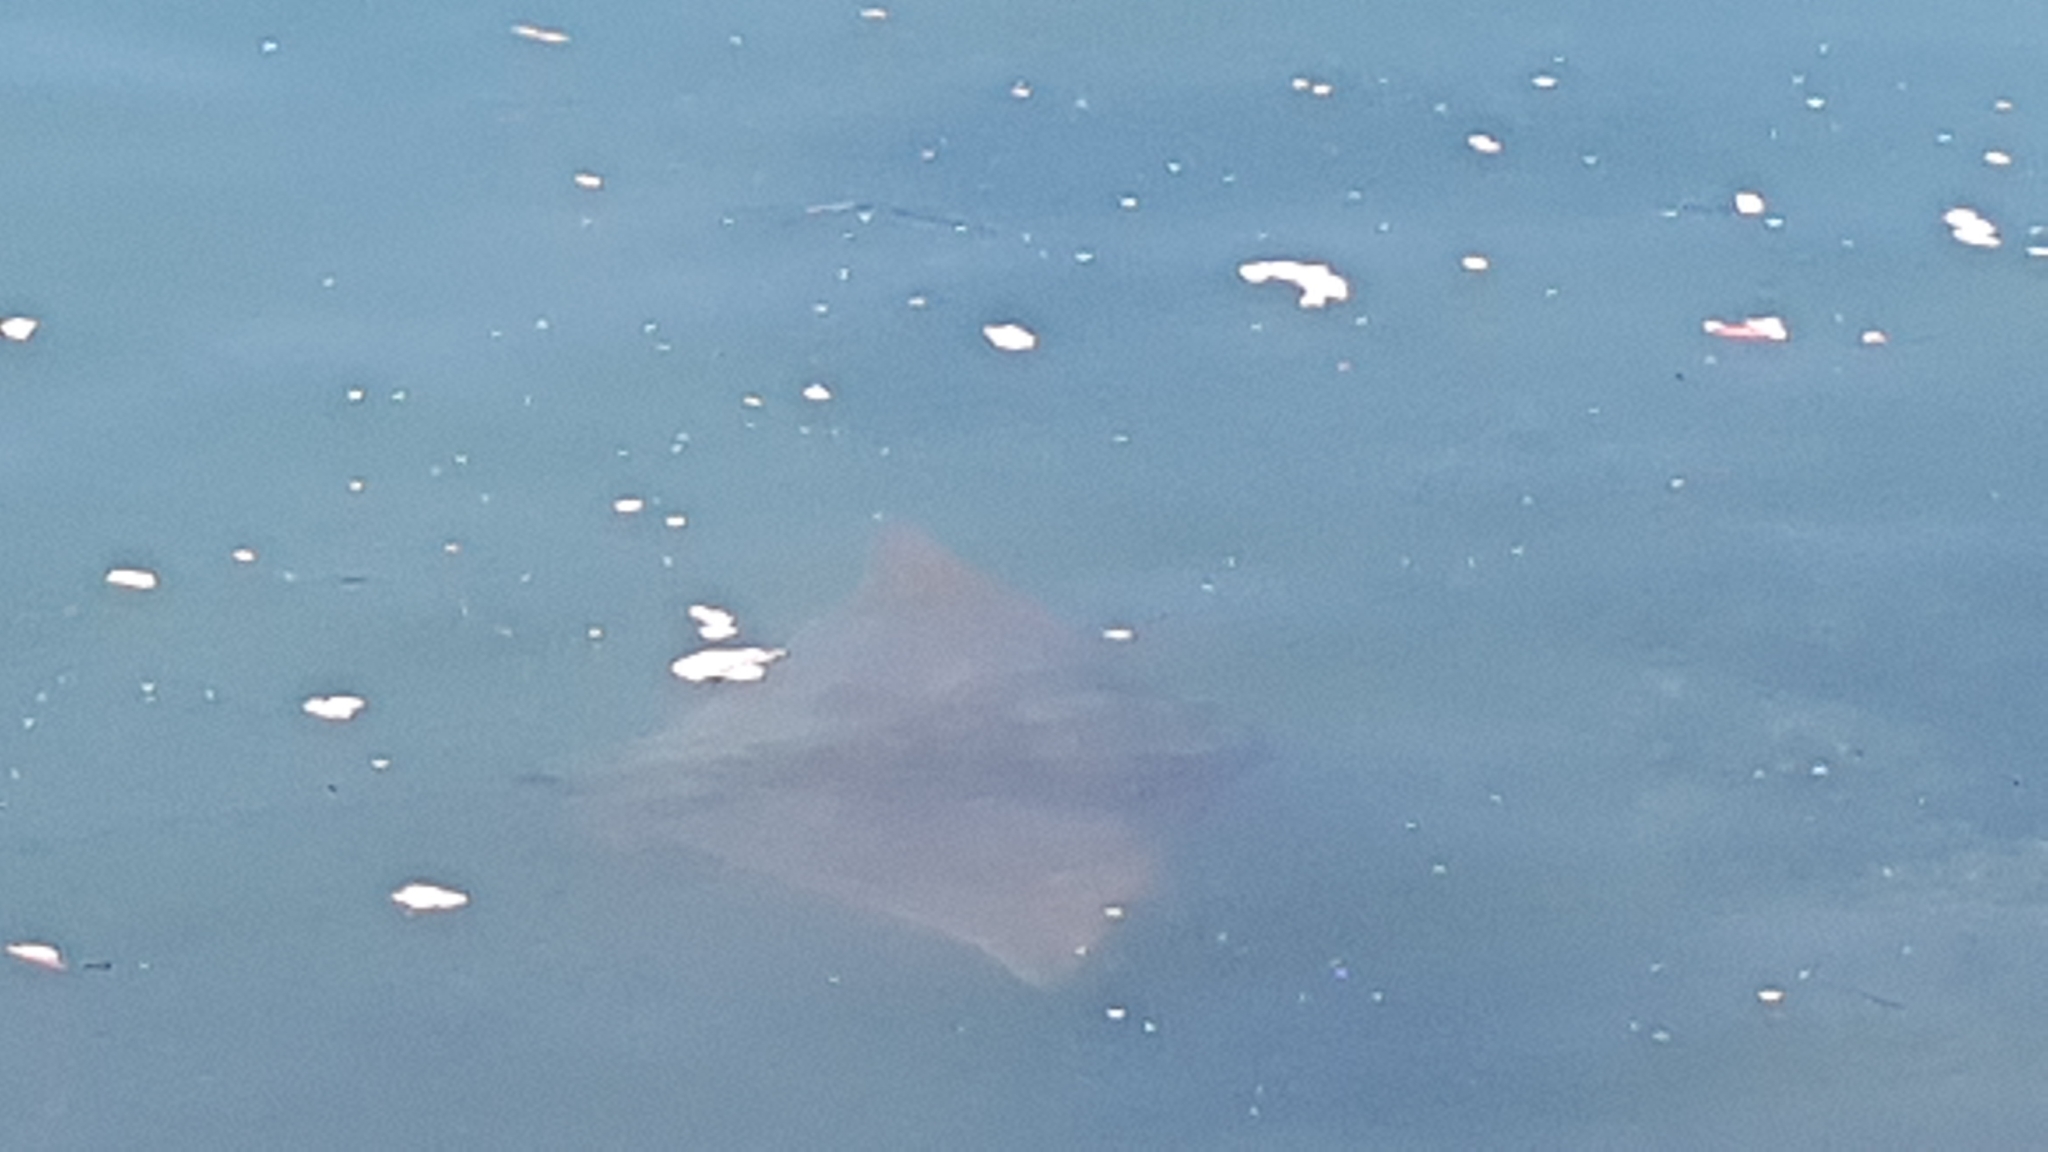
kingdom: Animalia
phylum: Chordata
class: Elasmobranchii
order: Myliobatiformes
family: Myliobatidae
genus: Myliobatis
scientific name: Myliobatis tenuicaudatus
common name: Eagle ray
